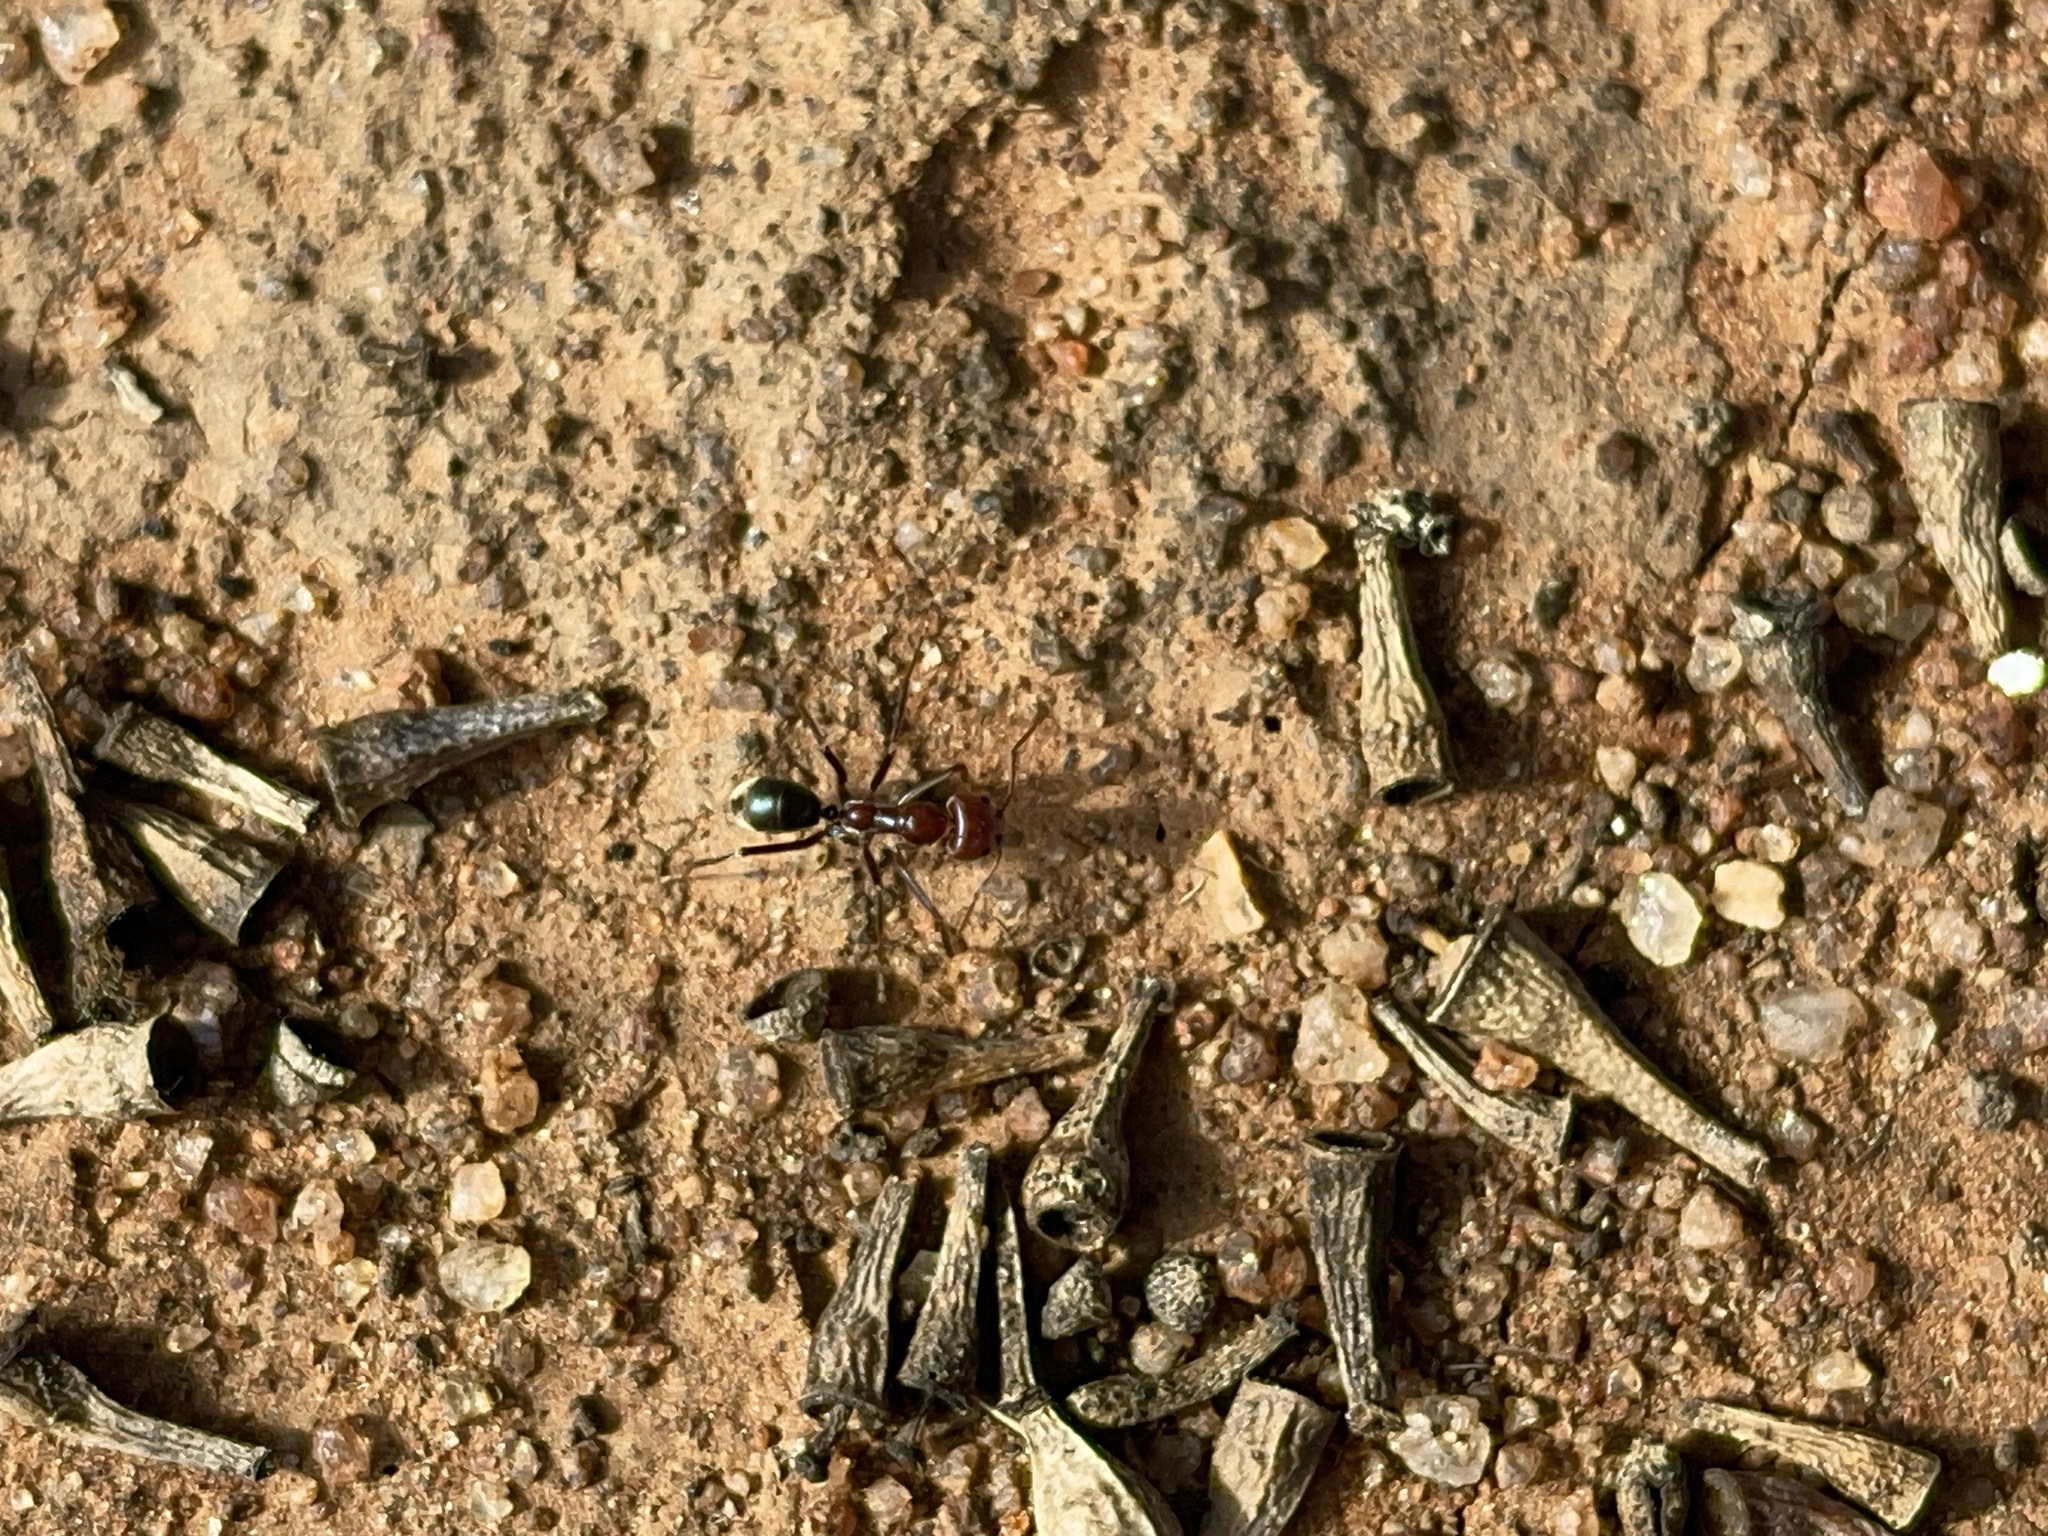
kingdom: Animalia
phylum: Arthropoda
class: Insecta
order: Hymenoptera
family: Formicidae
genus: Iridomyrmex
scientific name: Iridomyrmex purpureus
